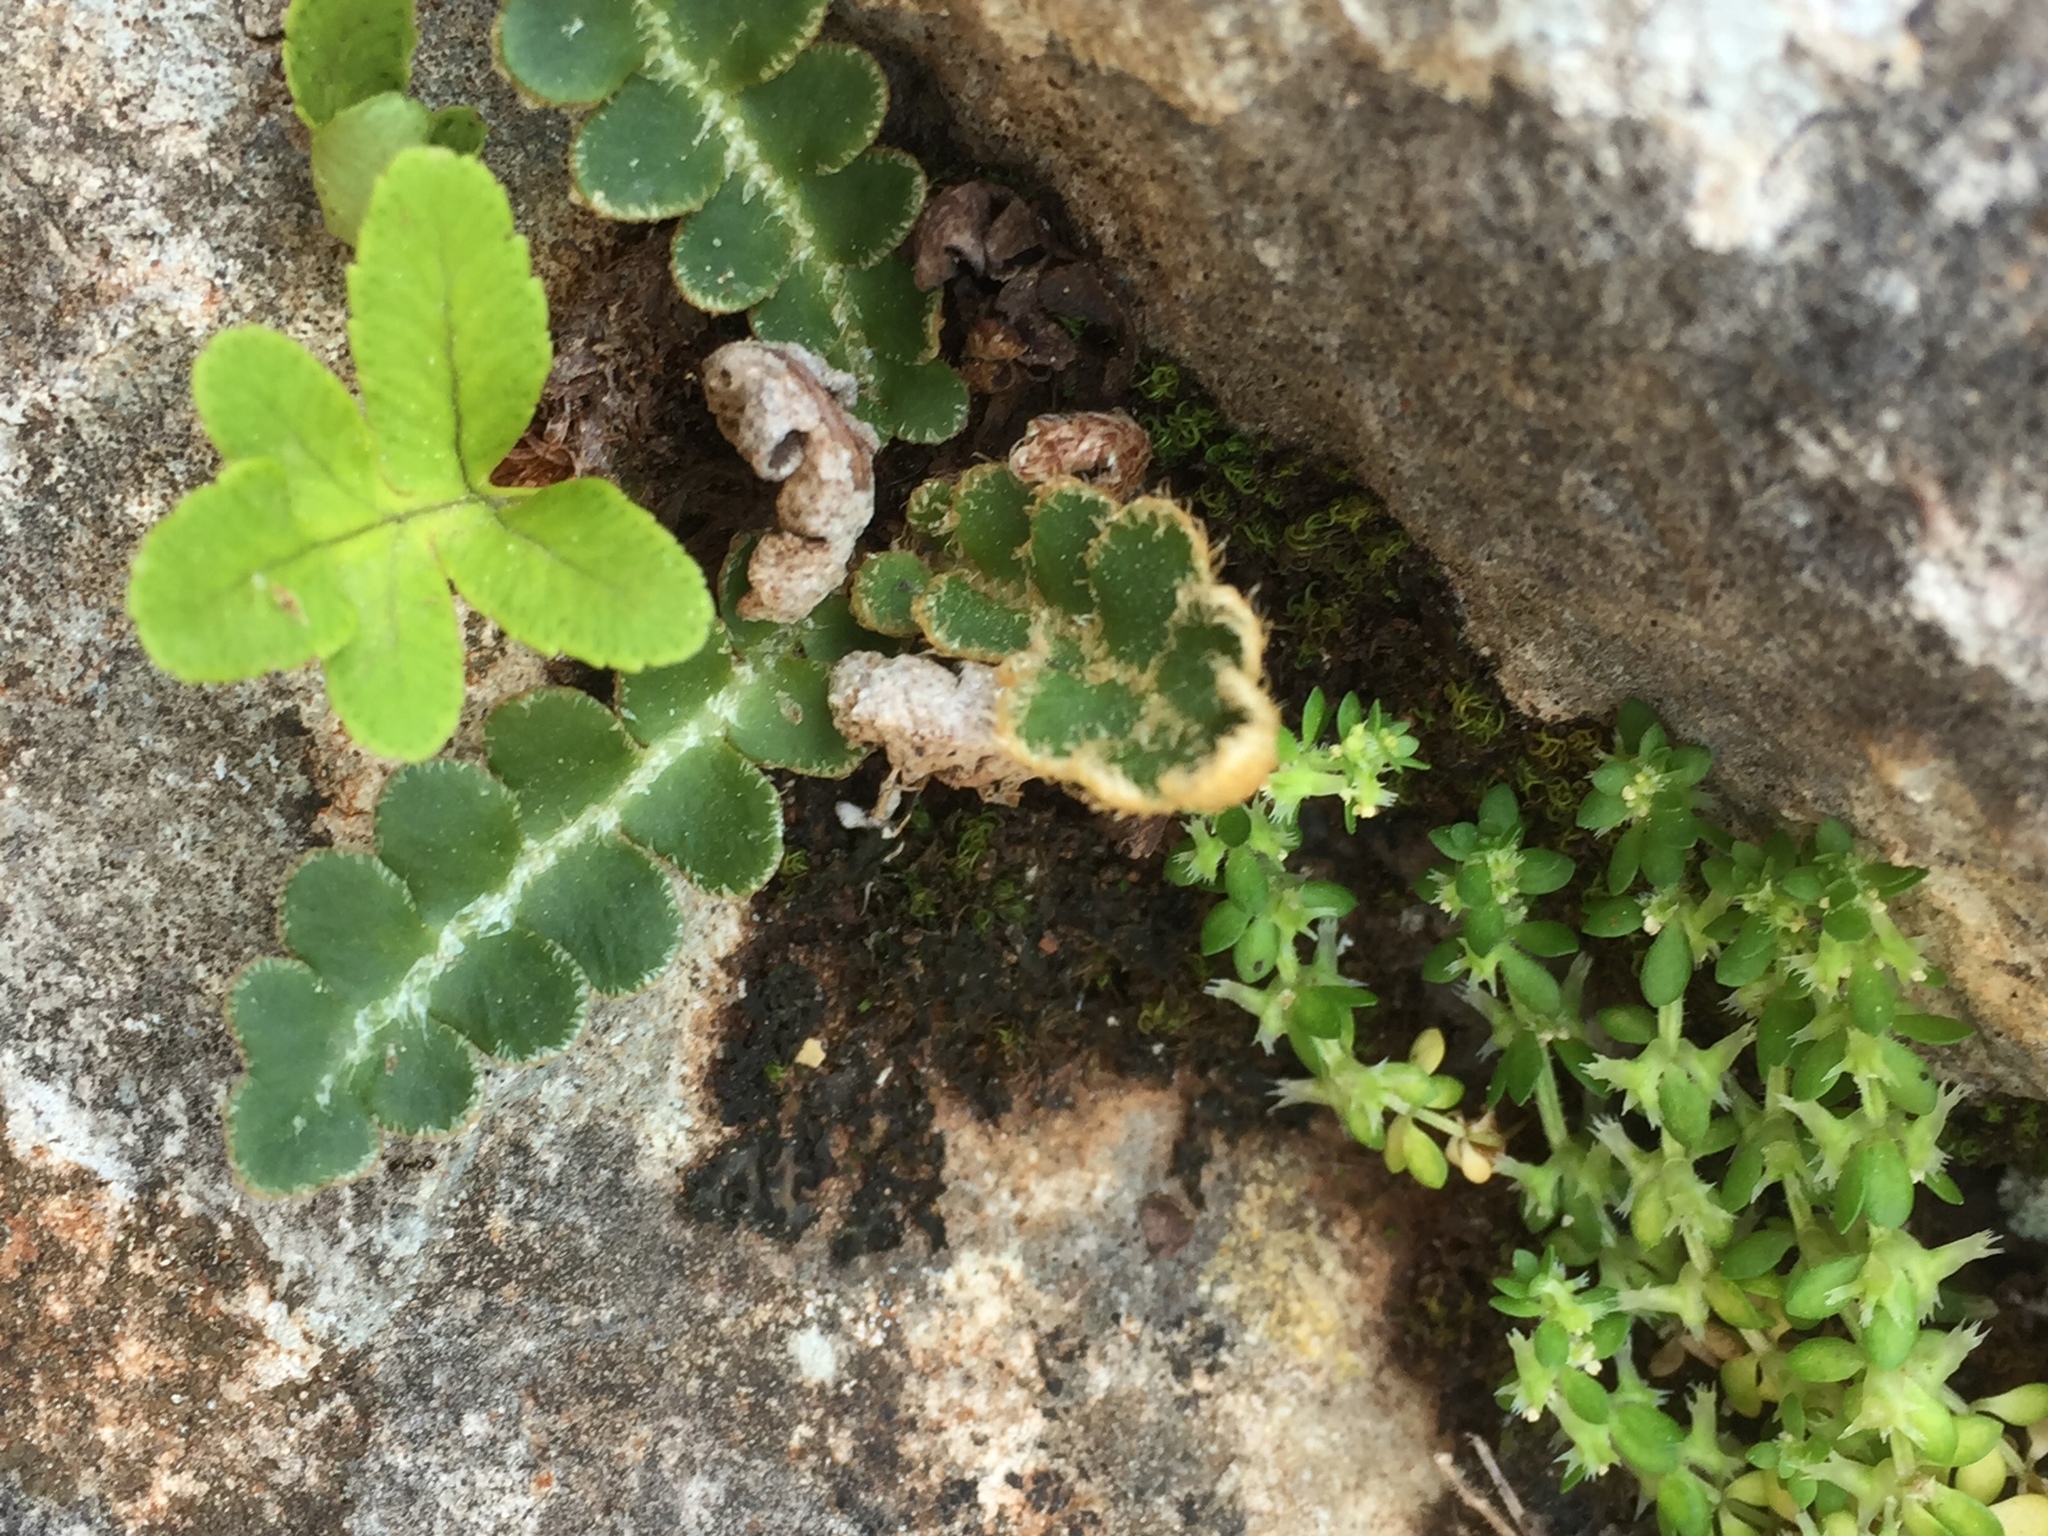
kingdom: Plantae
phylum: Tracheophyta
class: Polypodiopsida
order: Polypodiales
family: Aspleniaceae
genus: Asplenium
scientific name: Asplenium ceterach
